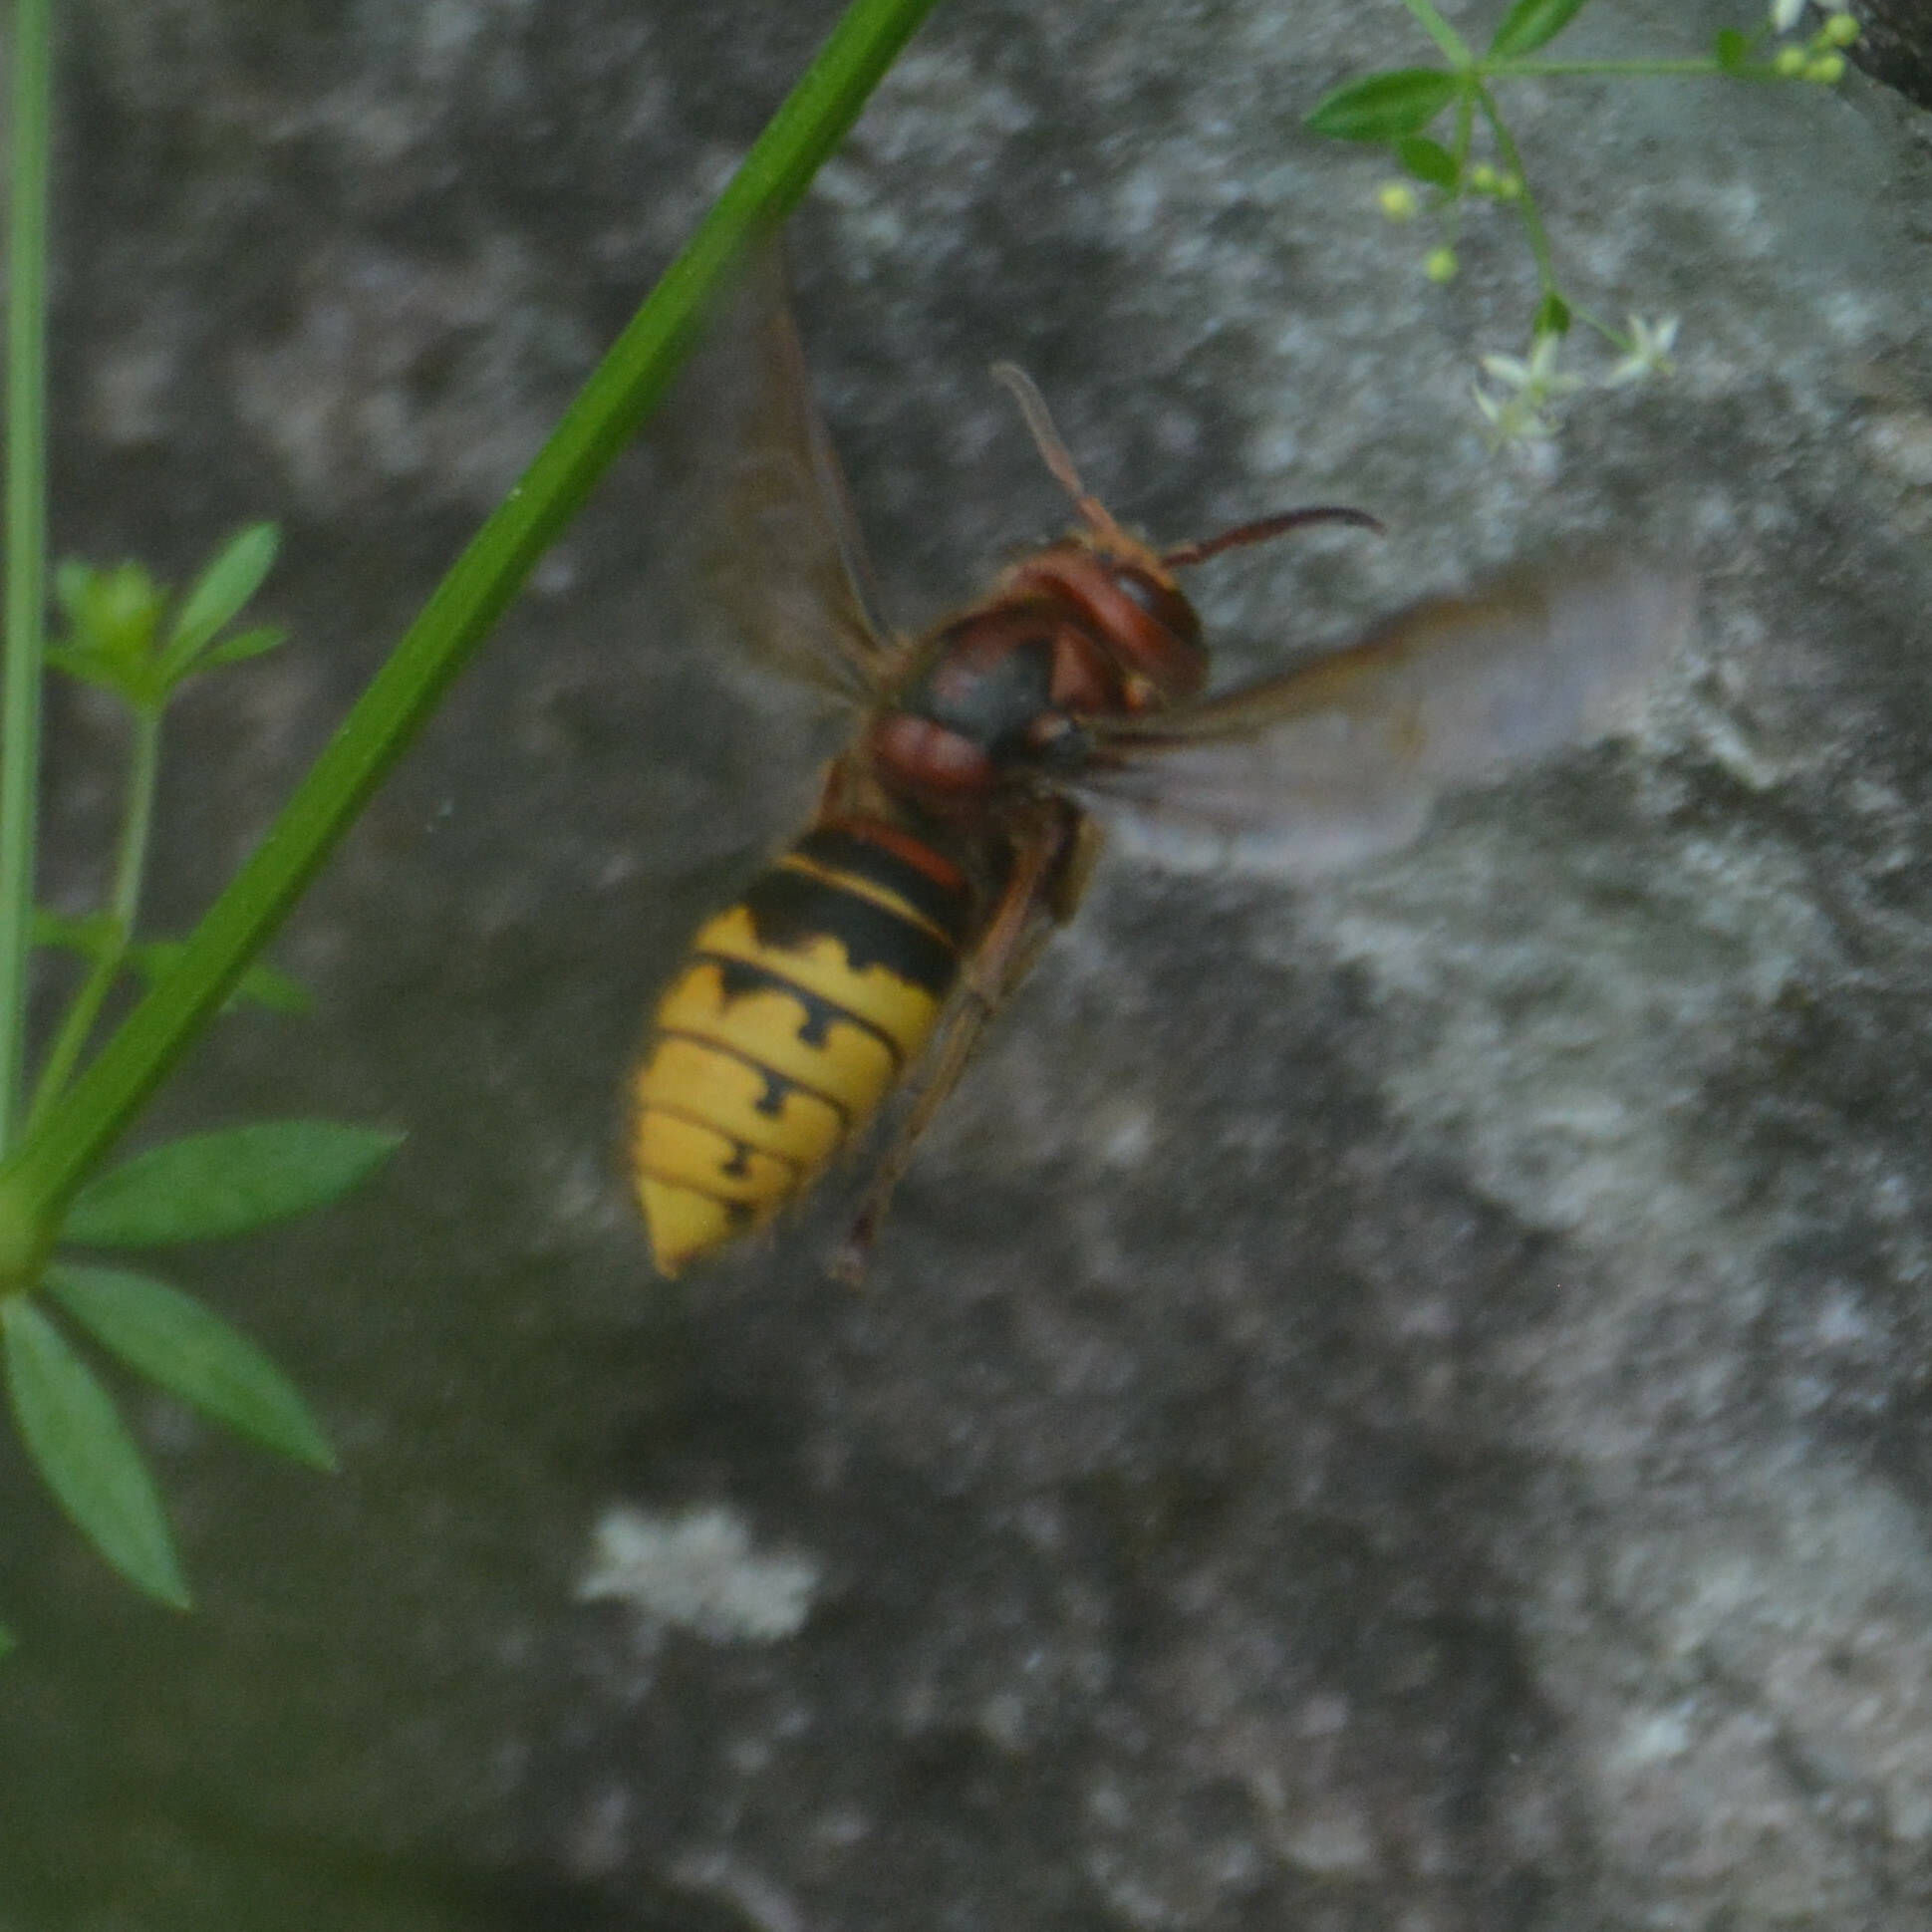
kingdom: Animalia
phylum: Arthropoda
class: Insecta
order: Hymenoptera
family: Vespidae
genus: Vespa
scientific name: Vespa crabro
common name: Hornet
